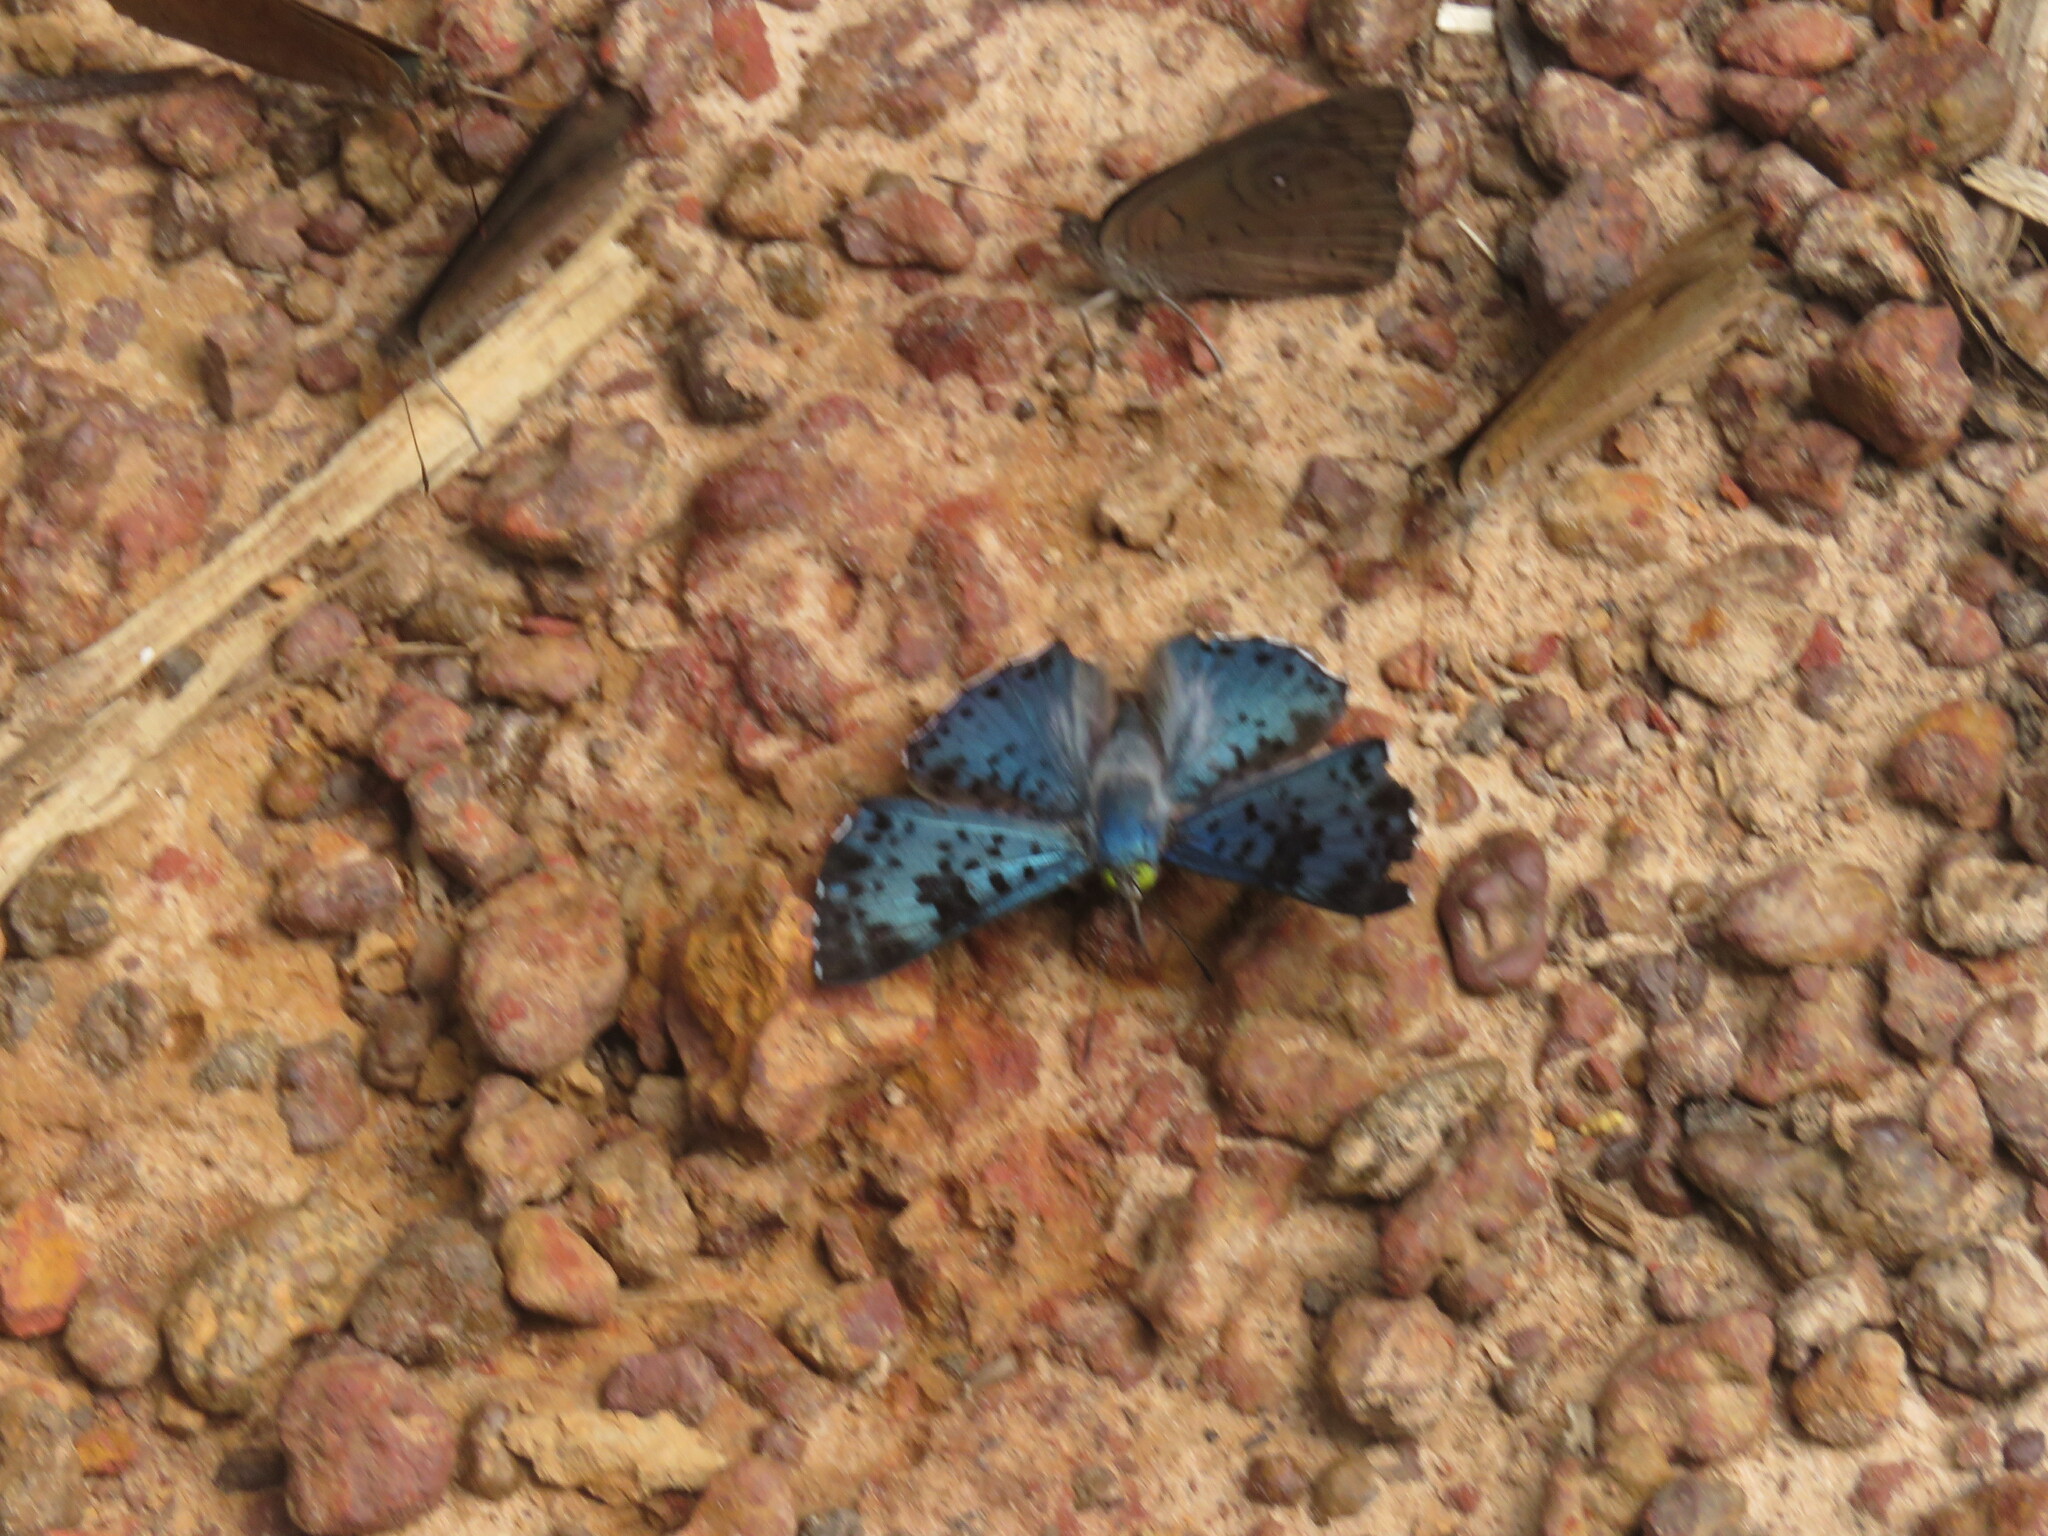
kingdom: Animalia
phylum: Arthropoda
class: Insecta
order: Lepidoptera
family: Riodinidae
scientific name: Riodinidae
